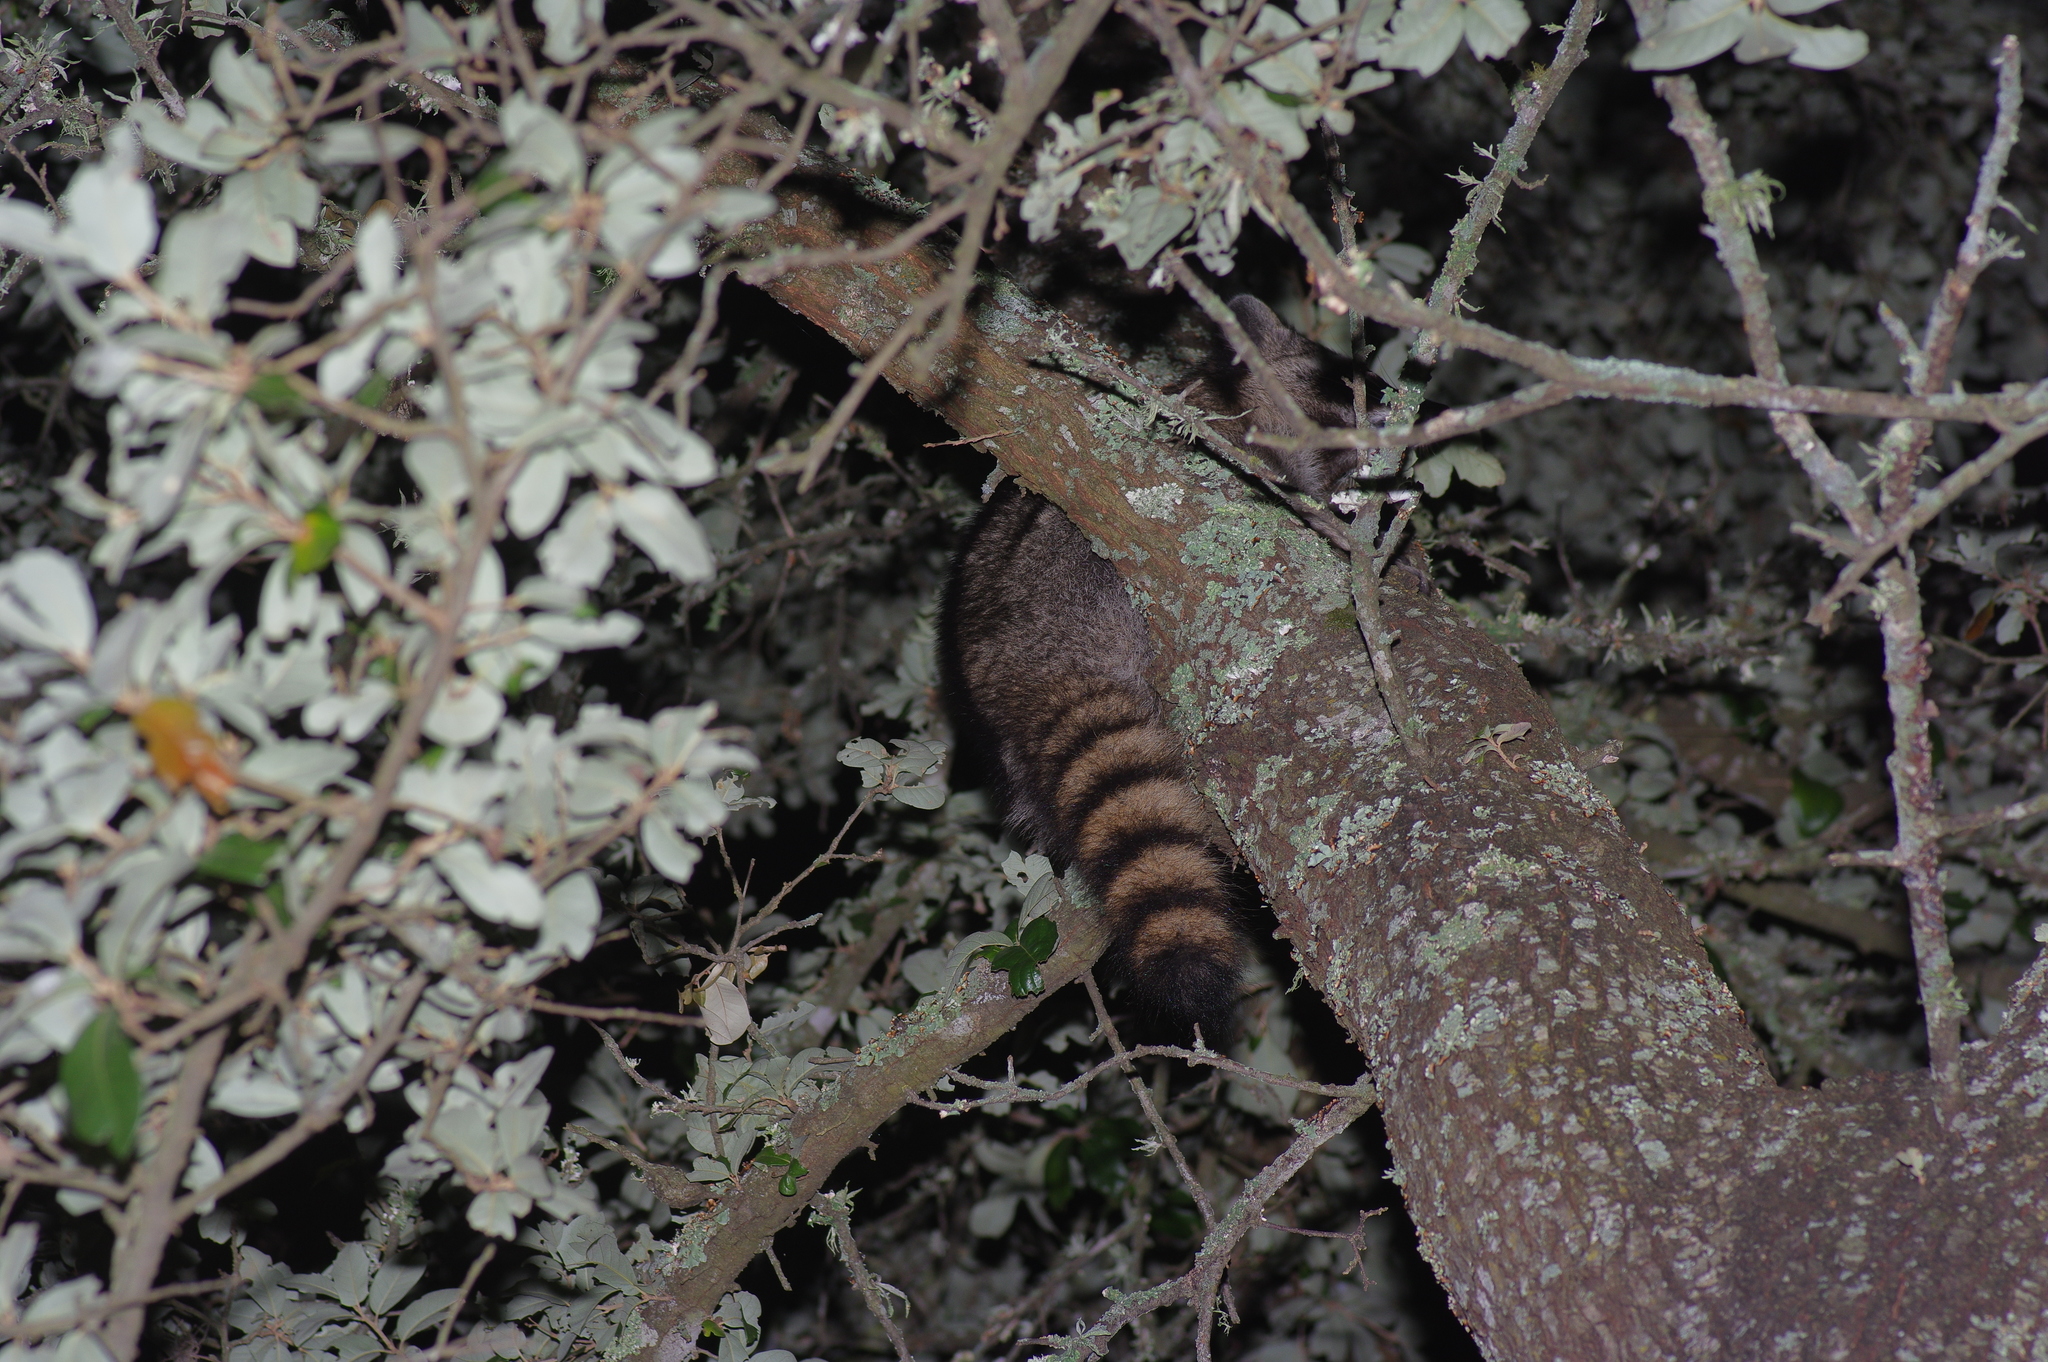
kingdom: Animalia
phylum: Chordata
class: Mammalia
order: Carnivora
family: Procyonidae
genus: Procyon
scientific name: Procyon lotor
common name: Raccoon
